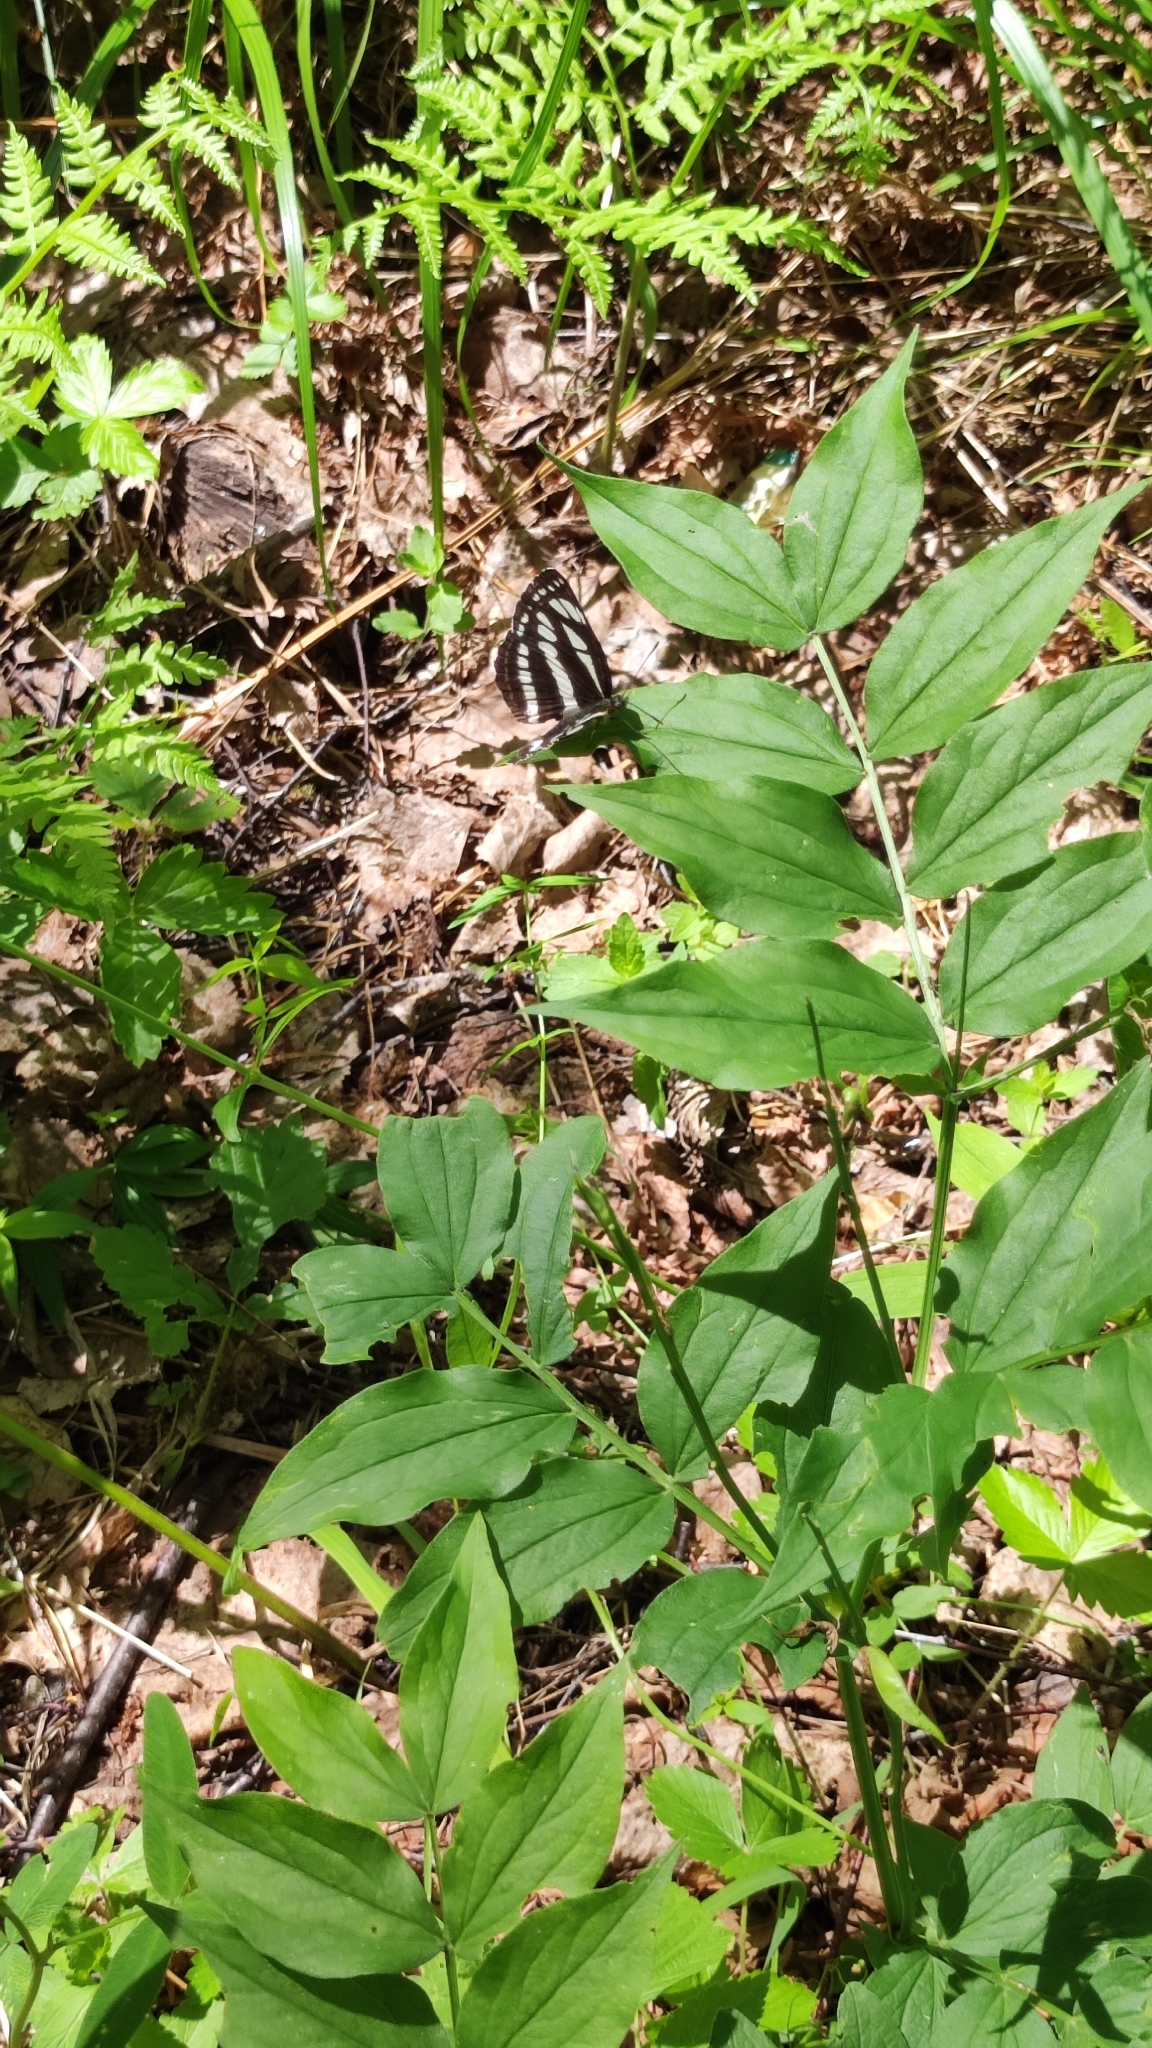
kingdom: Animalia
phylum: Arthropoda
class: Insecta
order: Lepidoptera
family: Nymphalidae
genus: Neptis
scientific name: Neptis sappho
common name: Common glider
